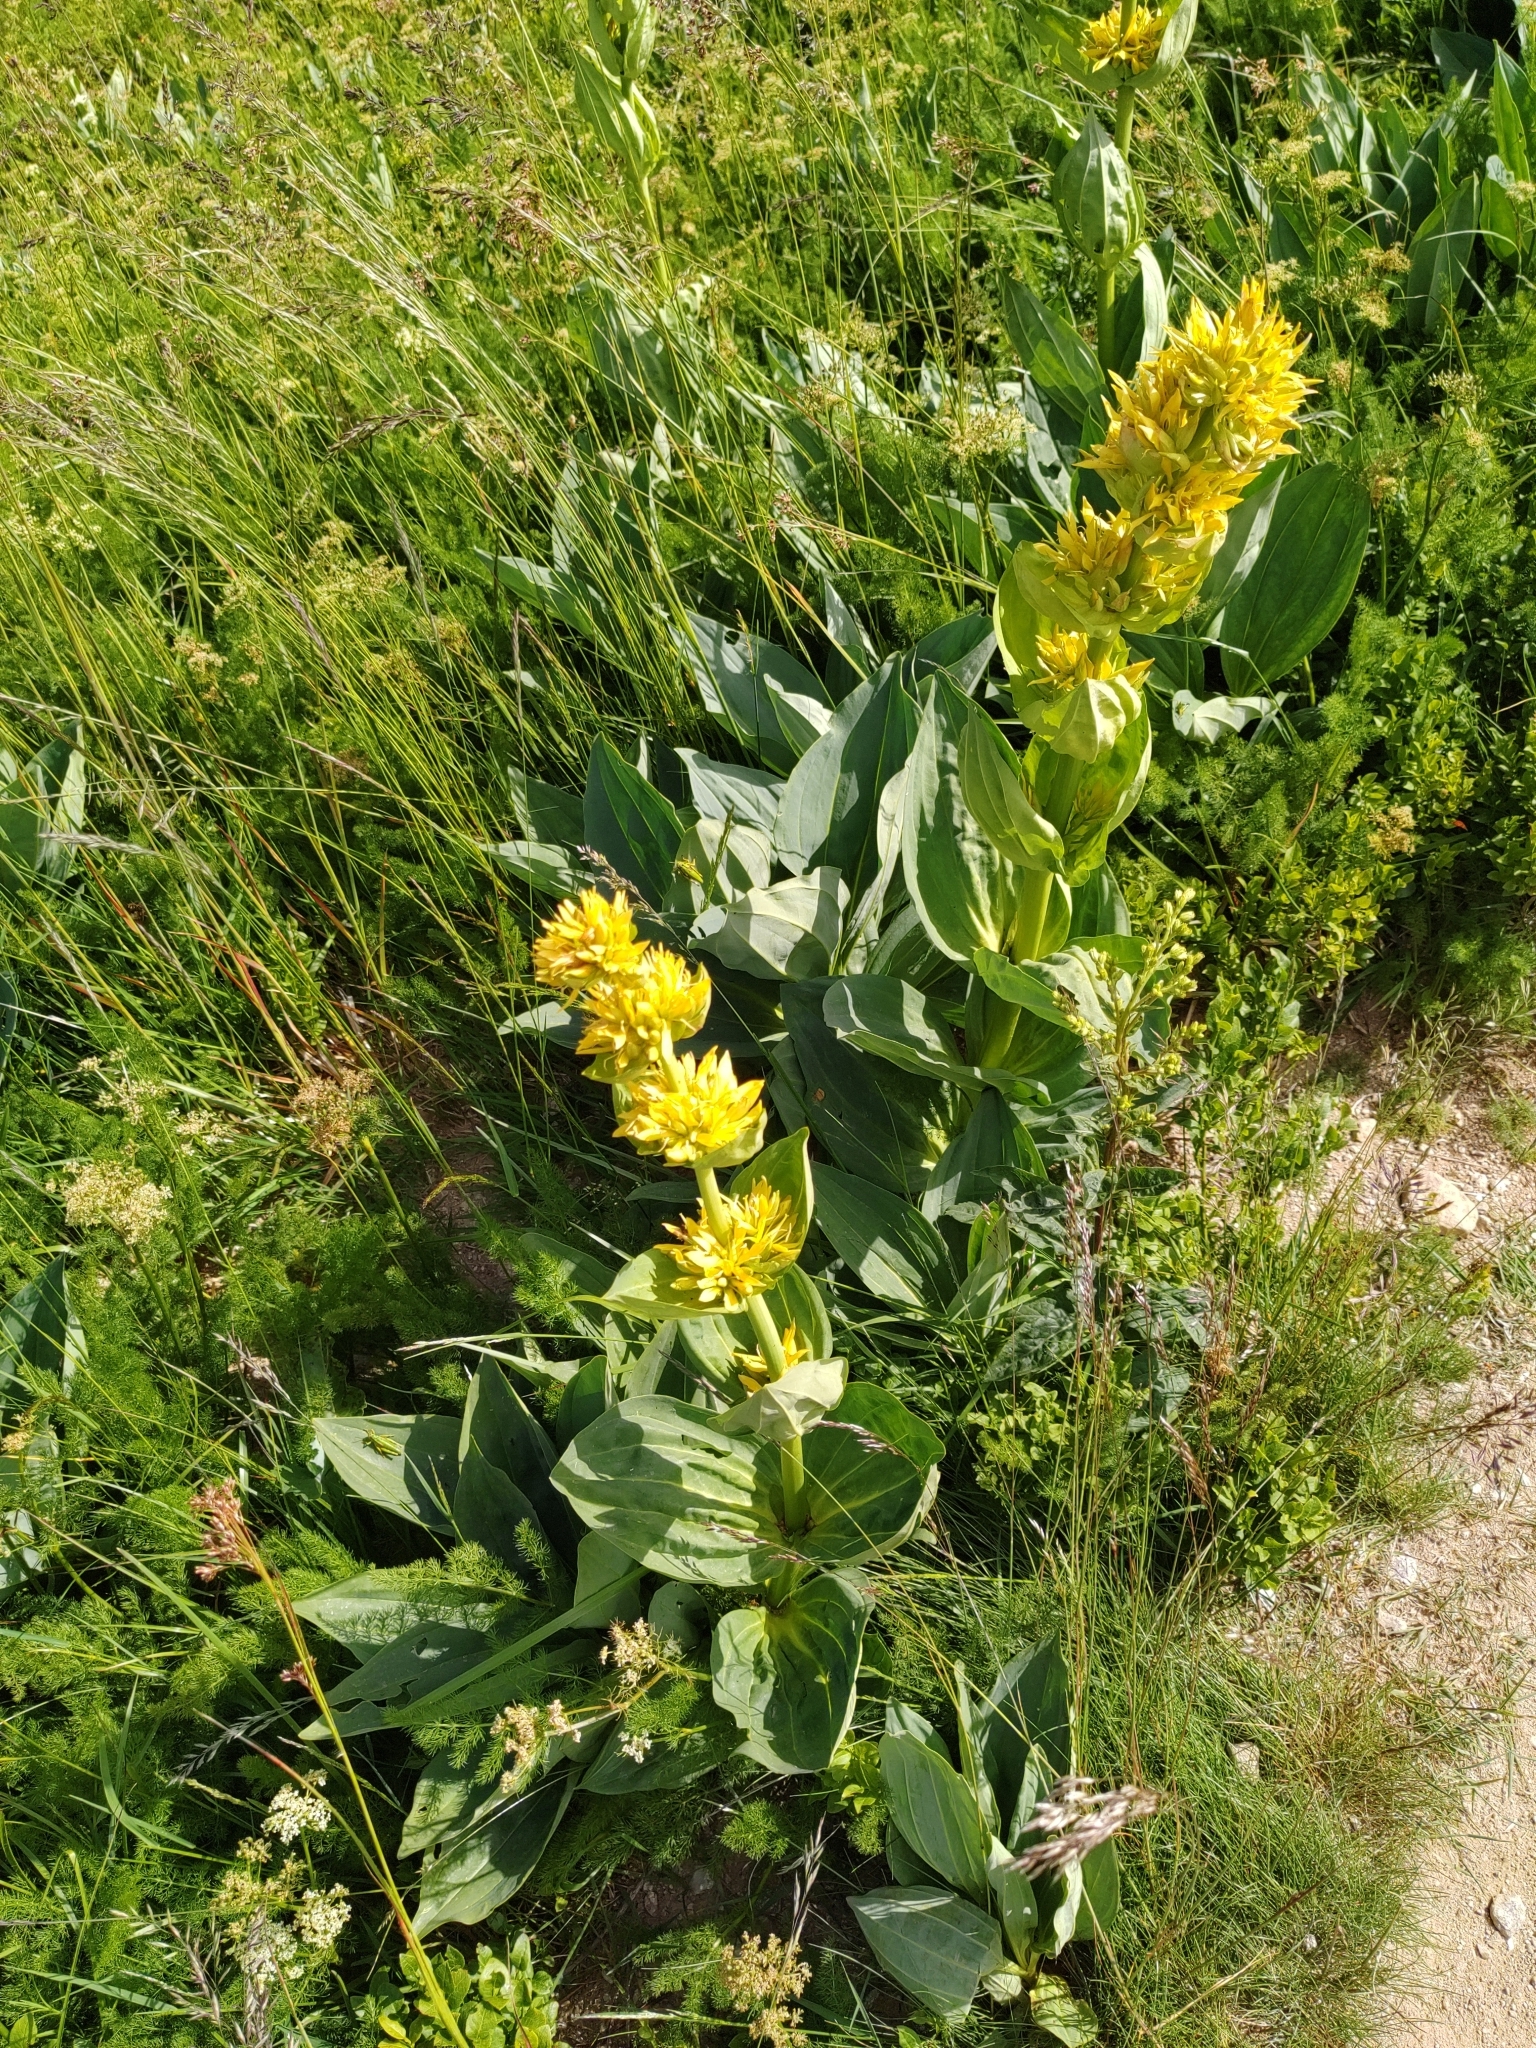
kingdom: Plantae
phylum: Tracheophyta
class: Magnoliopsida
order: Gentianales
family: Gentianaceae
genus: Gentiana
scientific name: Gentiana lutea
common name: Great yellow gentian
